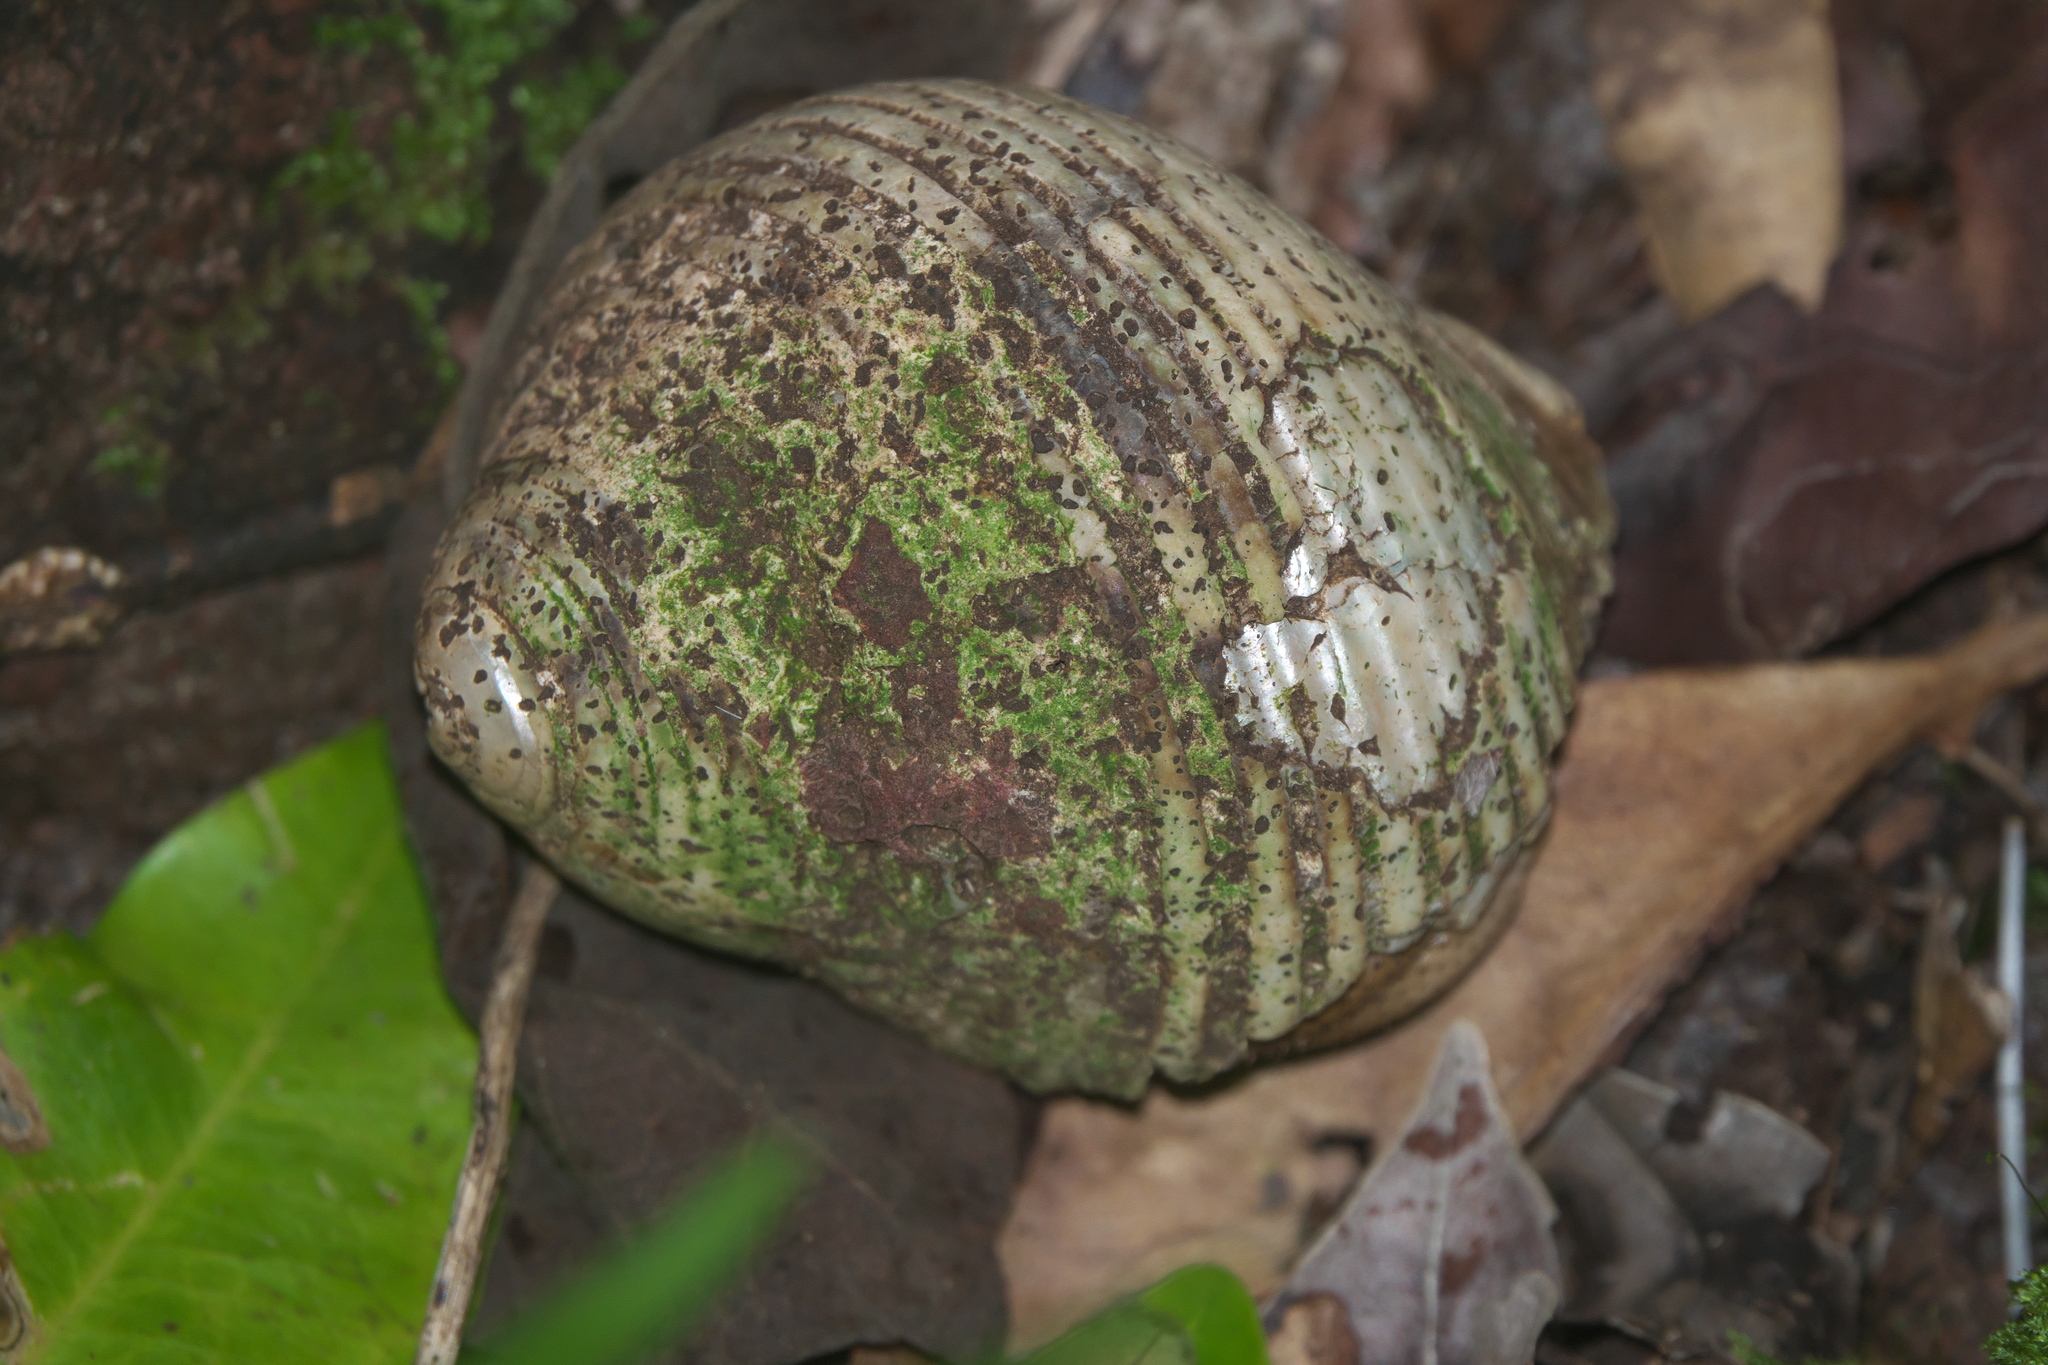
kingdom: Animalia
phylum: Arthropoda
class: Malacostraca
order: Decapoda
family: Coenobitidae
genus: Coenobita
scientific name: Coenobita brevimanus
